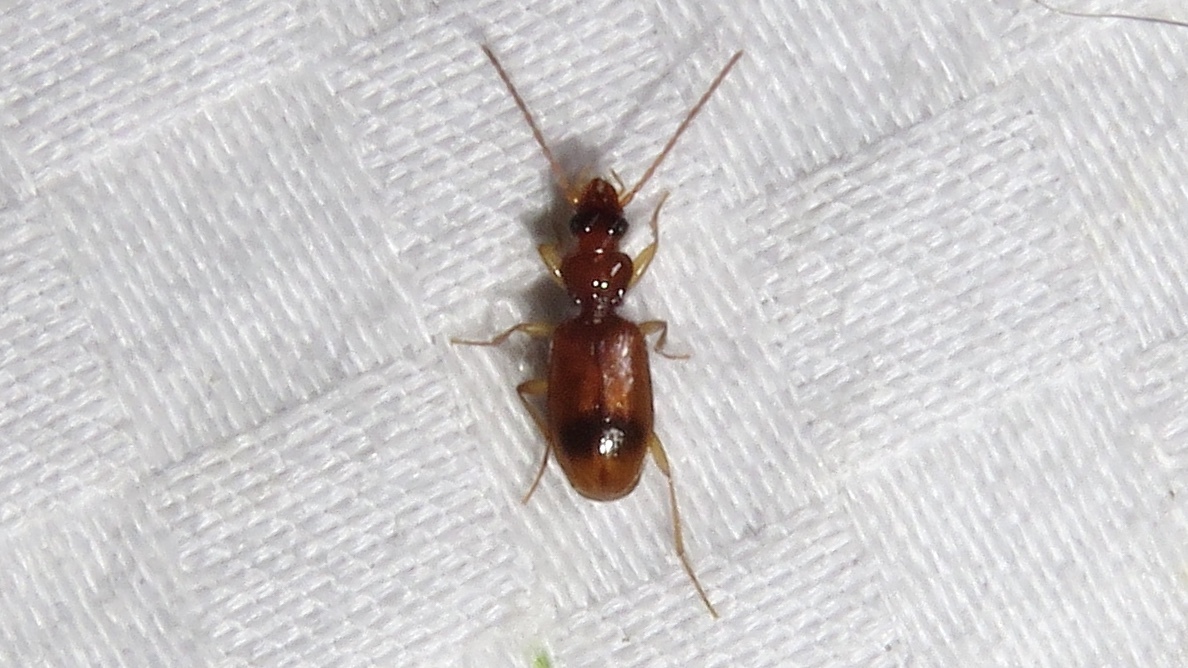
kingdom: Animalia
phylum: Arthropoda
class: Insecta
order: Coleoptera
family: Carabidae
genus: Blemus
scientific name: Blemus discus
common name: Discus riverbank ground beetle
